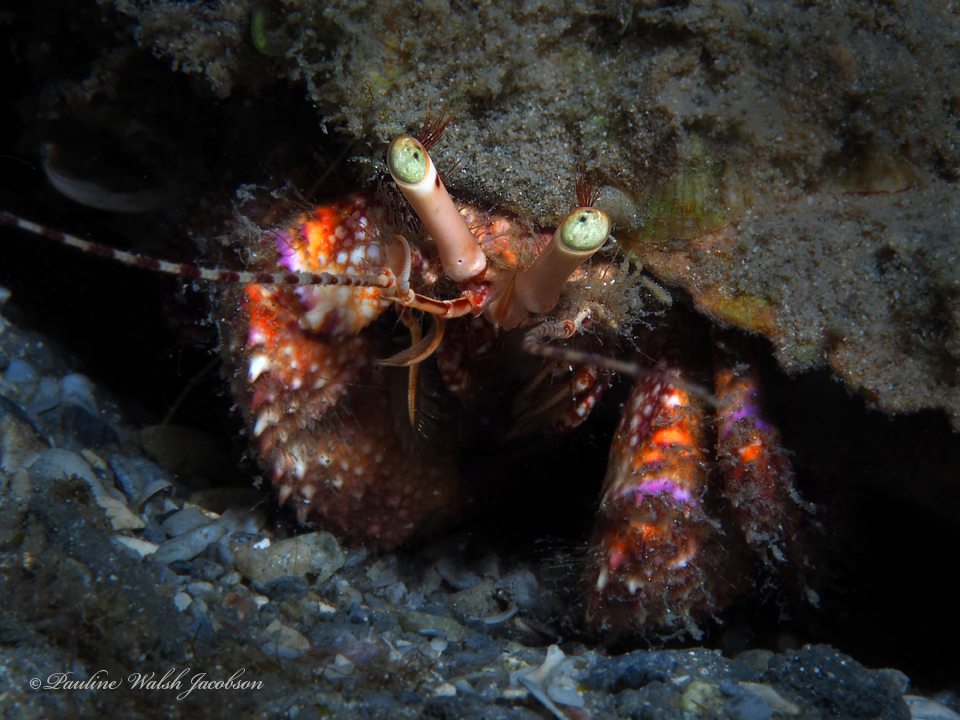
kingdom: Animalia
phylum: Arthropoda
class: Malacostraca
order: Decapoda
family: Diogenidae
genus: Petrochirus
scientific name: Petrochirus diogenes
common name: Giant hermit crab
